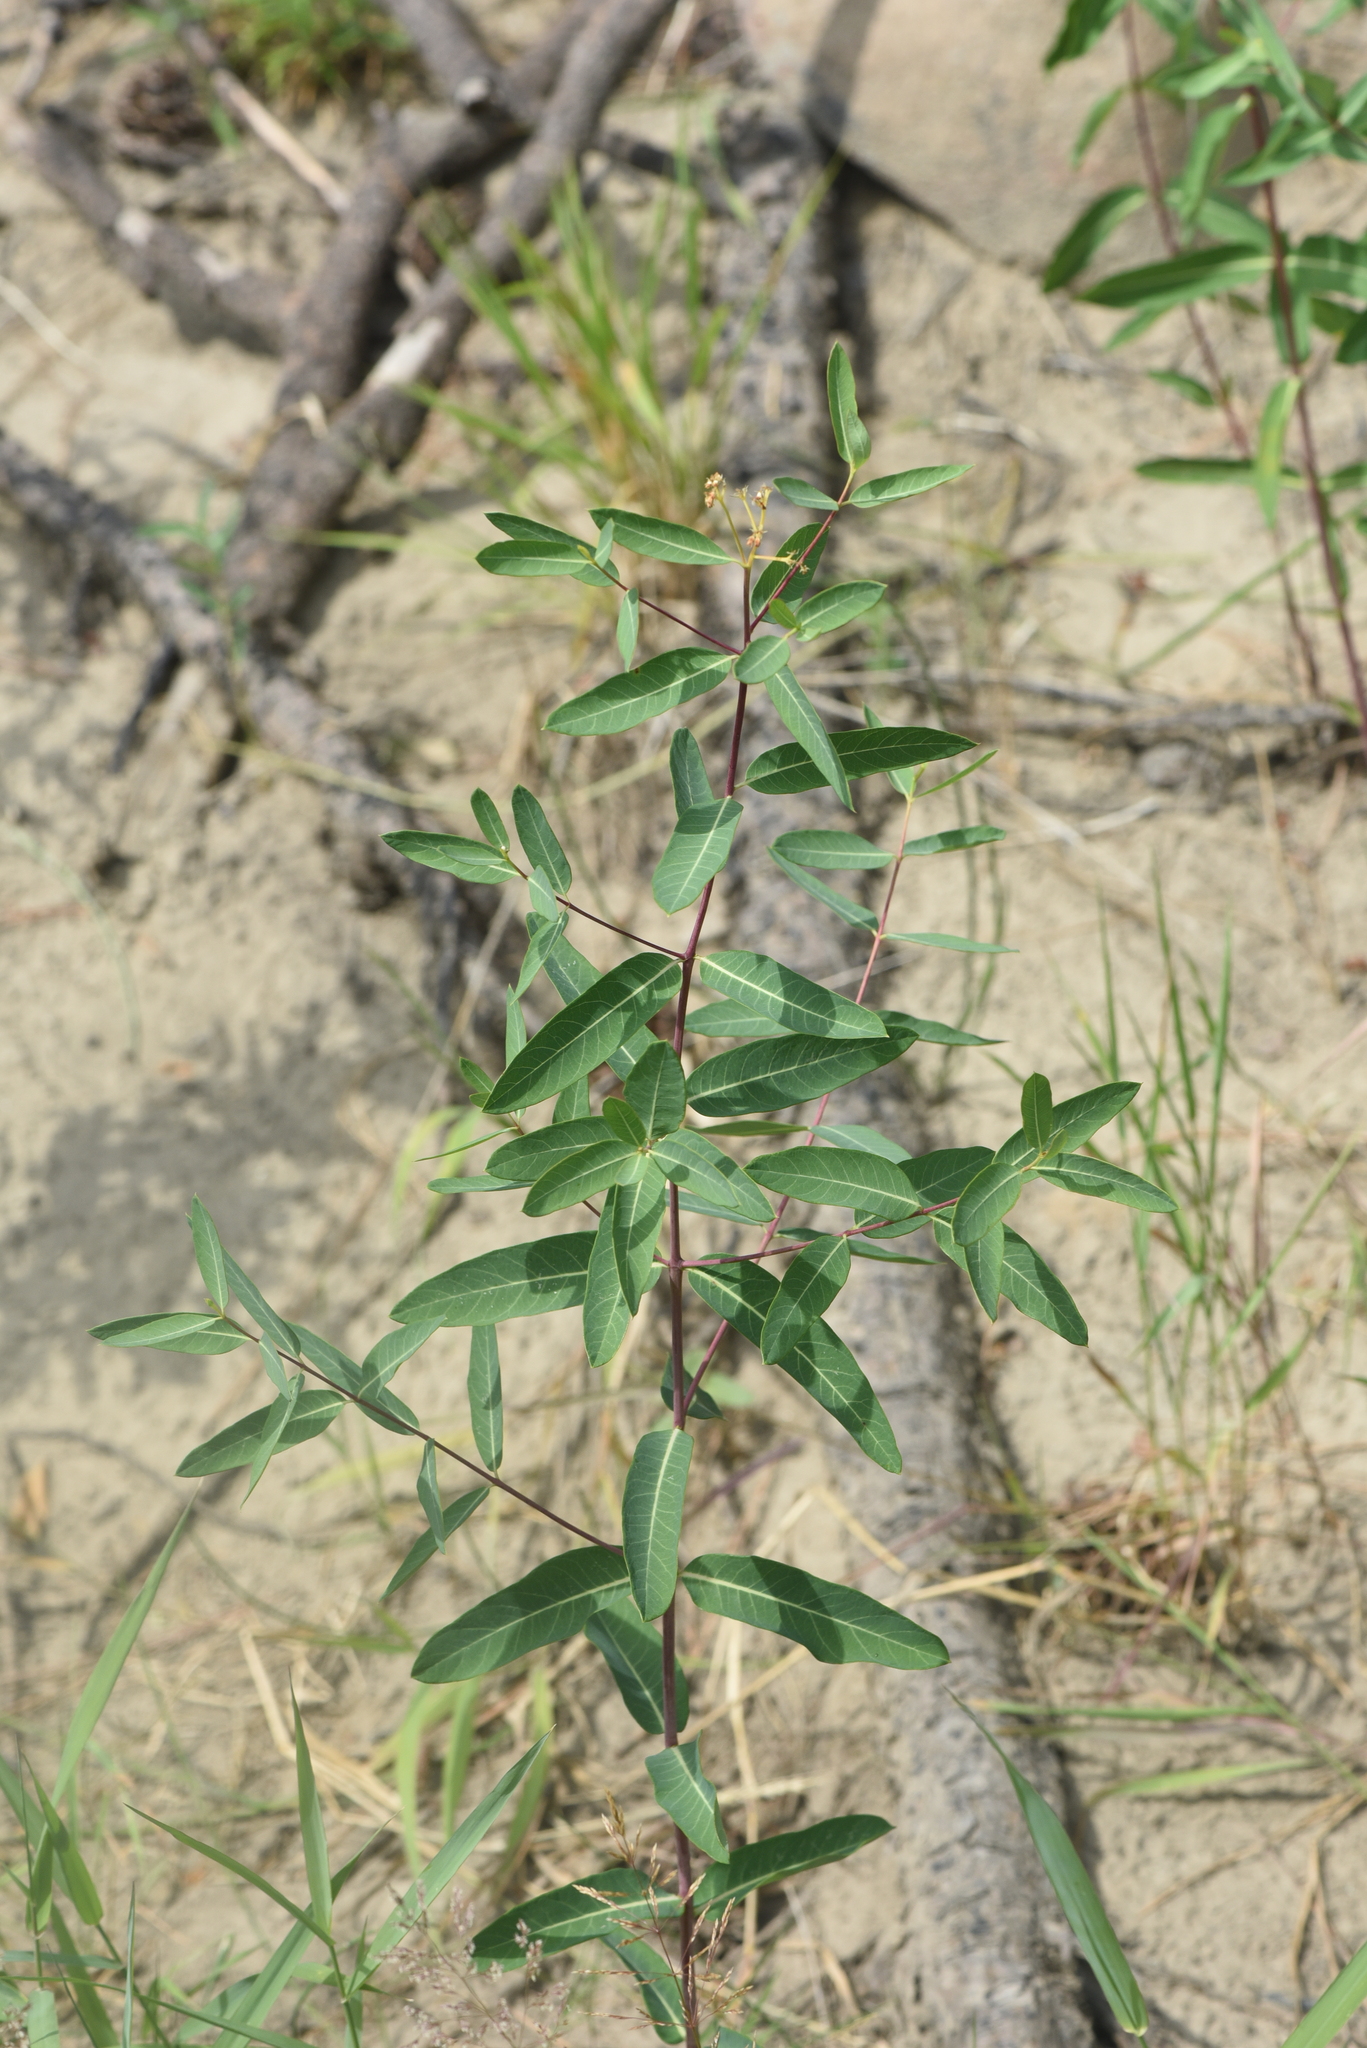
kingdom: Plantae
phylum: Tracheophyta
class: Magnoliopsida
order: Gentianales
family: Apocynaceae
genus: Apocynum
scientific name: Apocynum cannabinum
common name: Hemp dogbane
